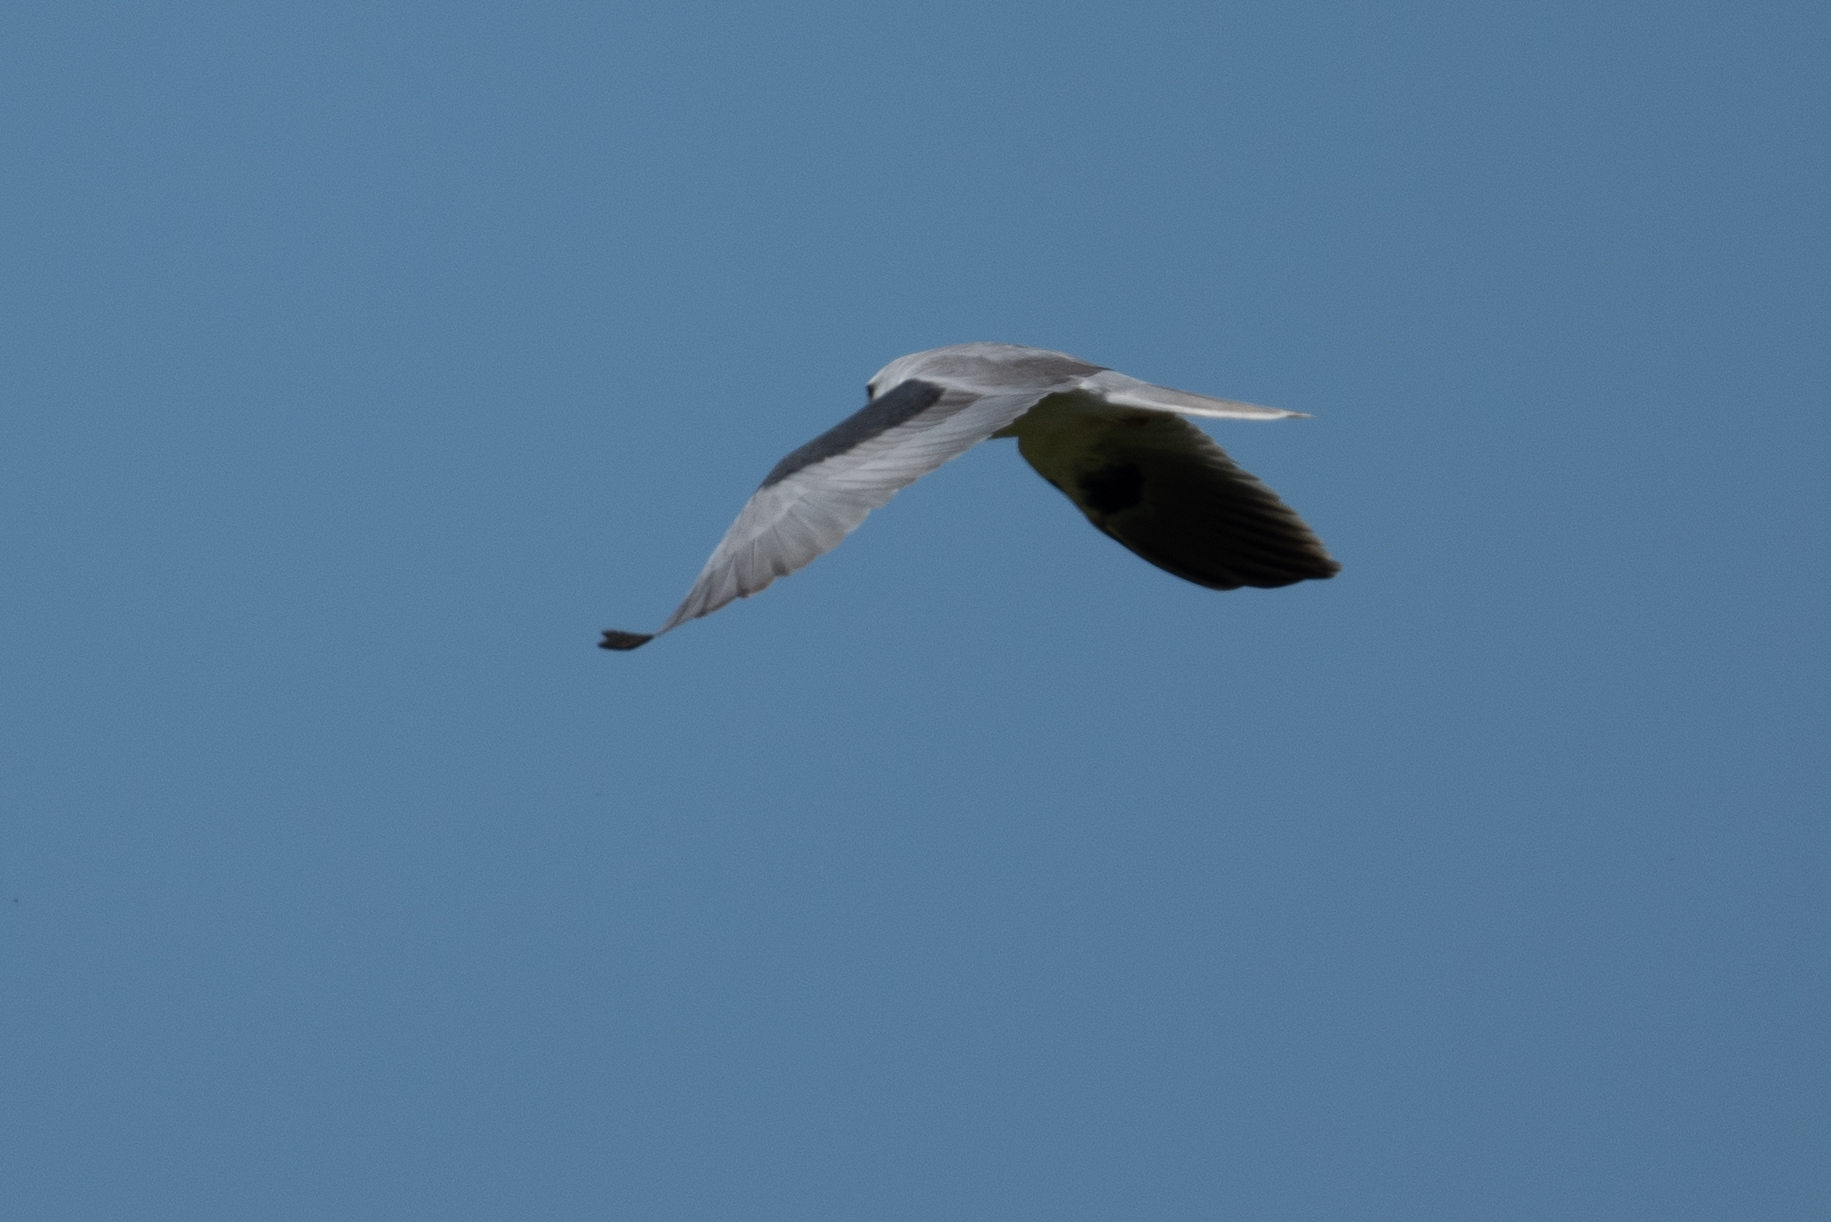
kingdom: Animalia
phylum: Chordata
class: Aves
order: Accipitriformes
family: Accipitridae
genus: Elanus
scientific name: Elanus leucurus
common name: White-tailed kite
